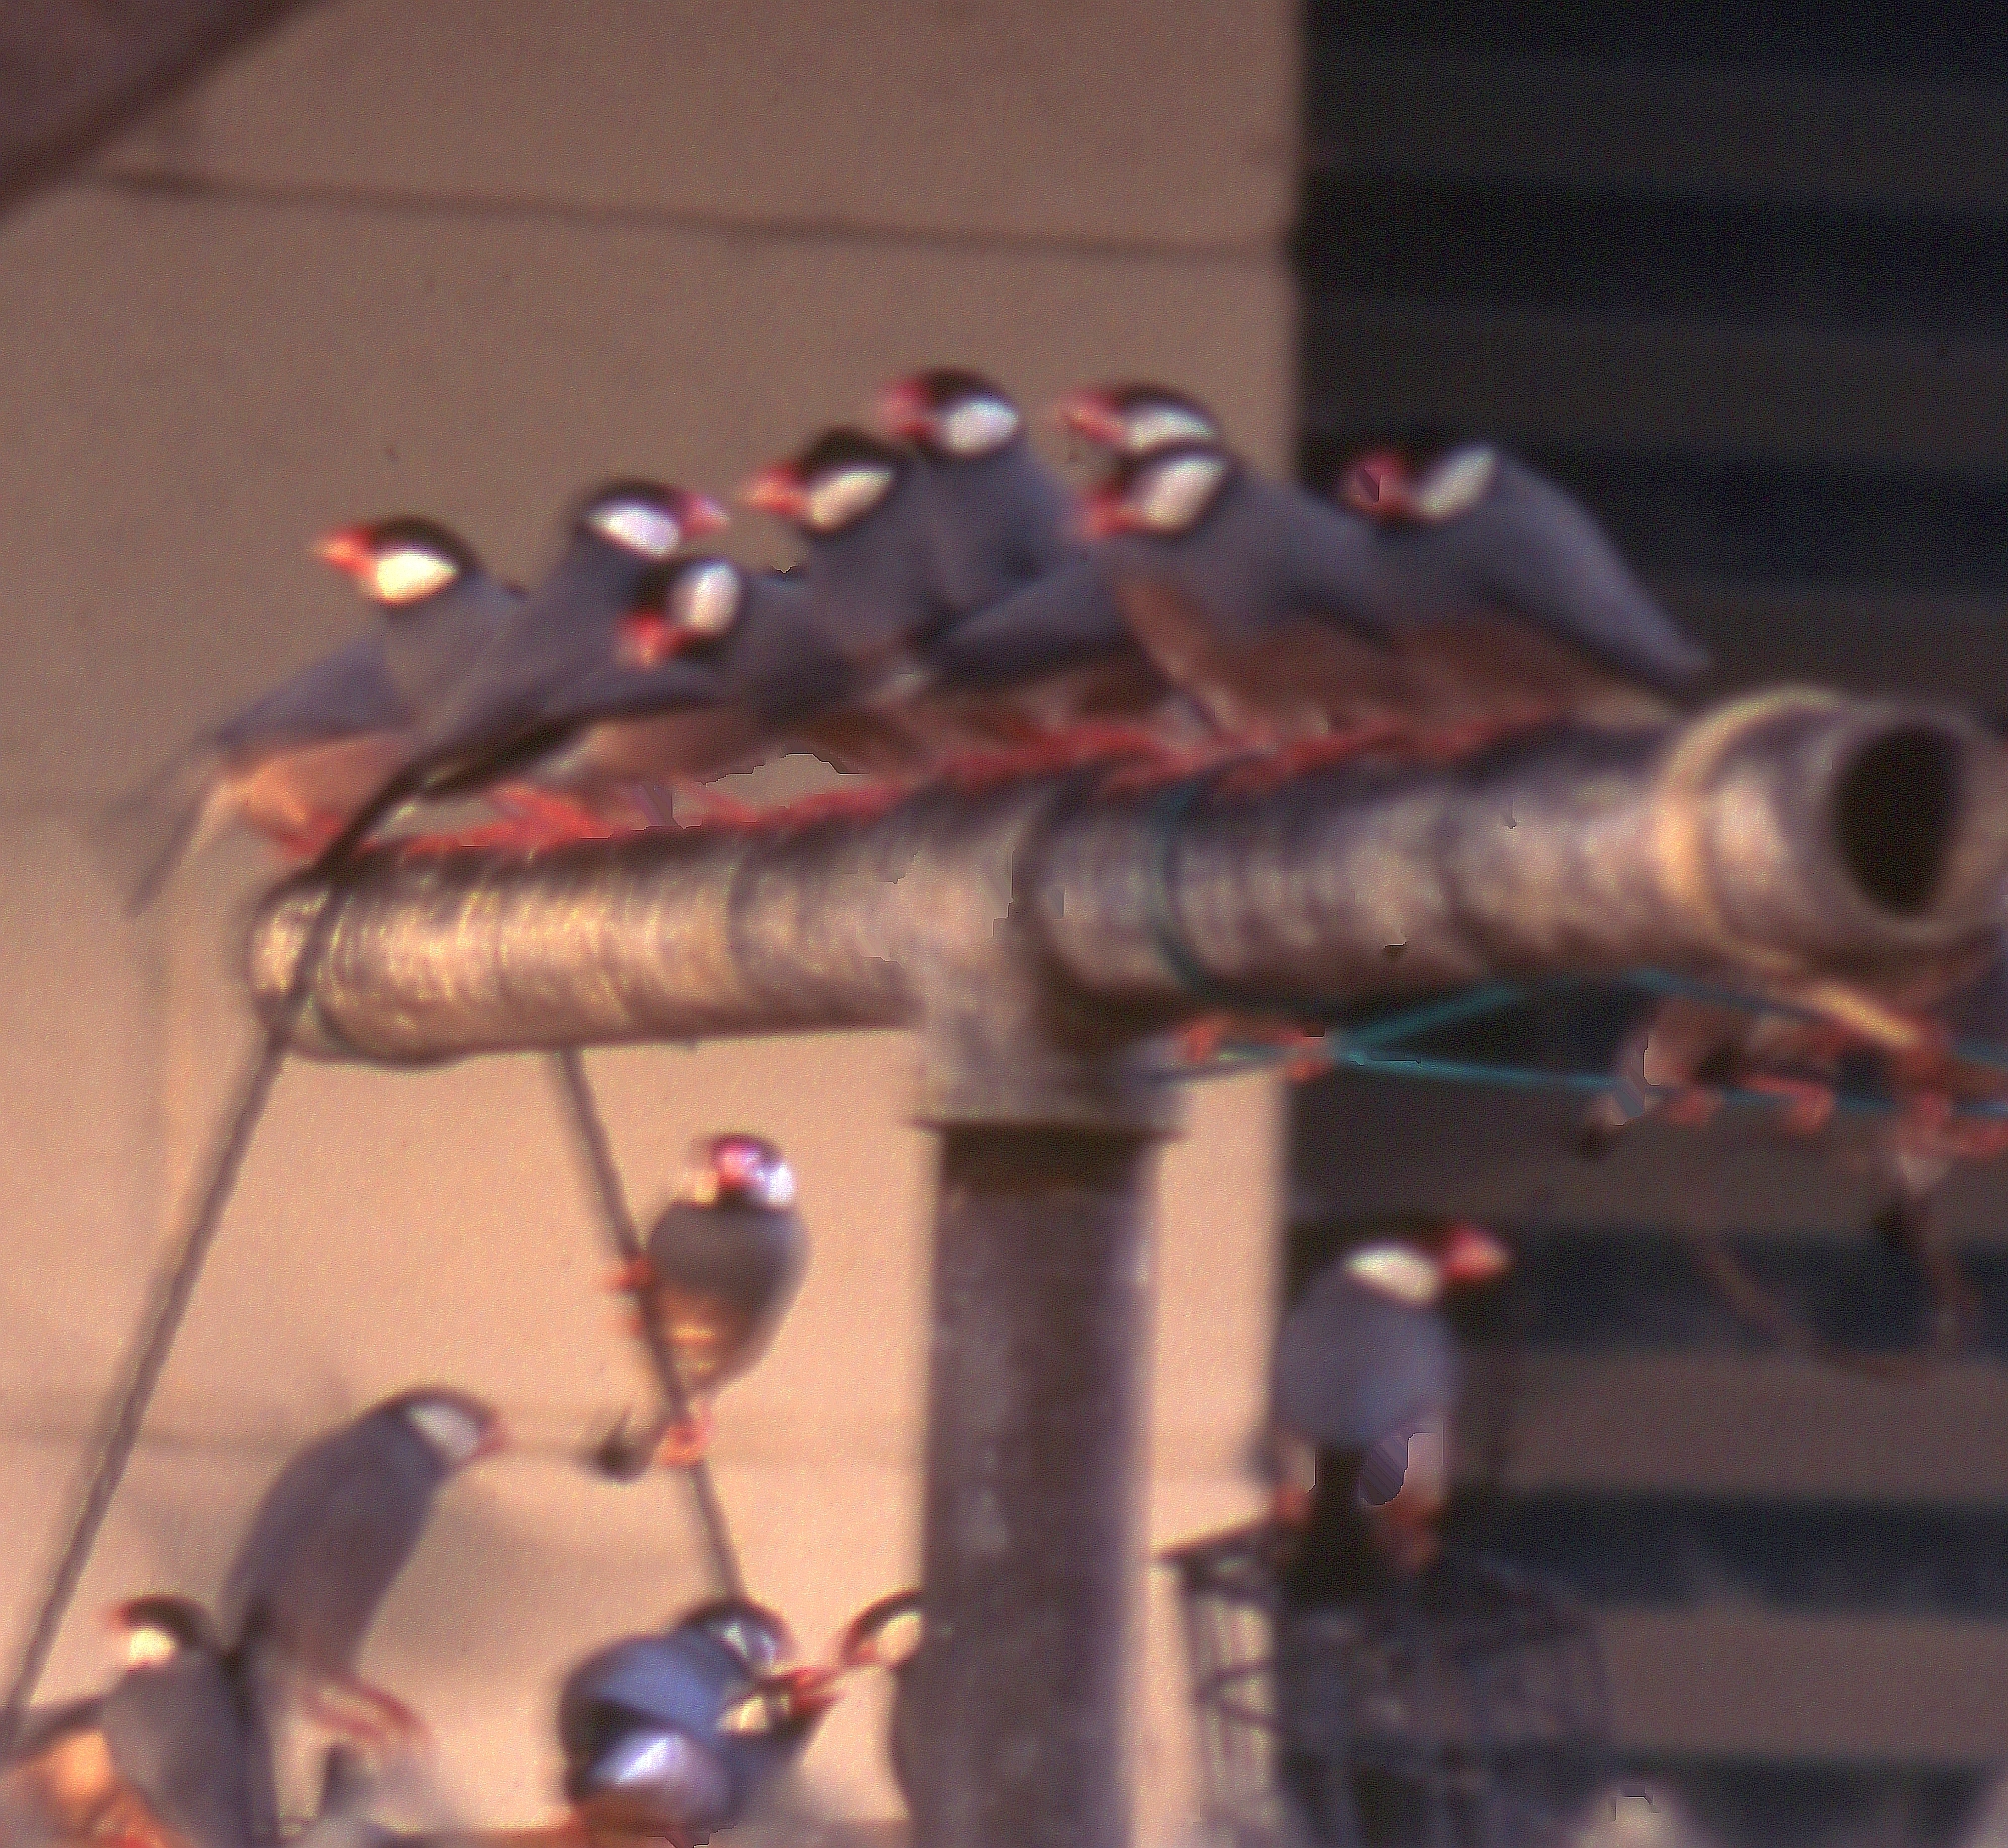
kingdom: Animalia
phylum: Chordata
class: Aves
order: Passeriformes
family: Estrildidae
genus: Lonchura
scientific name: Lonchura oryzivora
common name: Java sparrow
